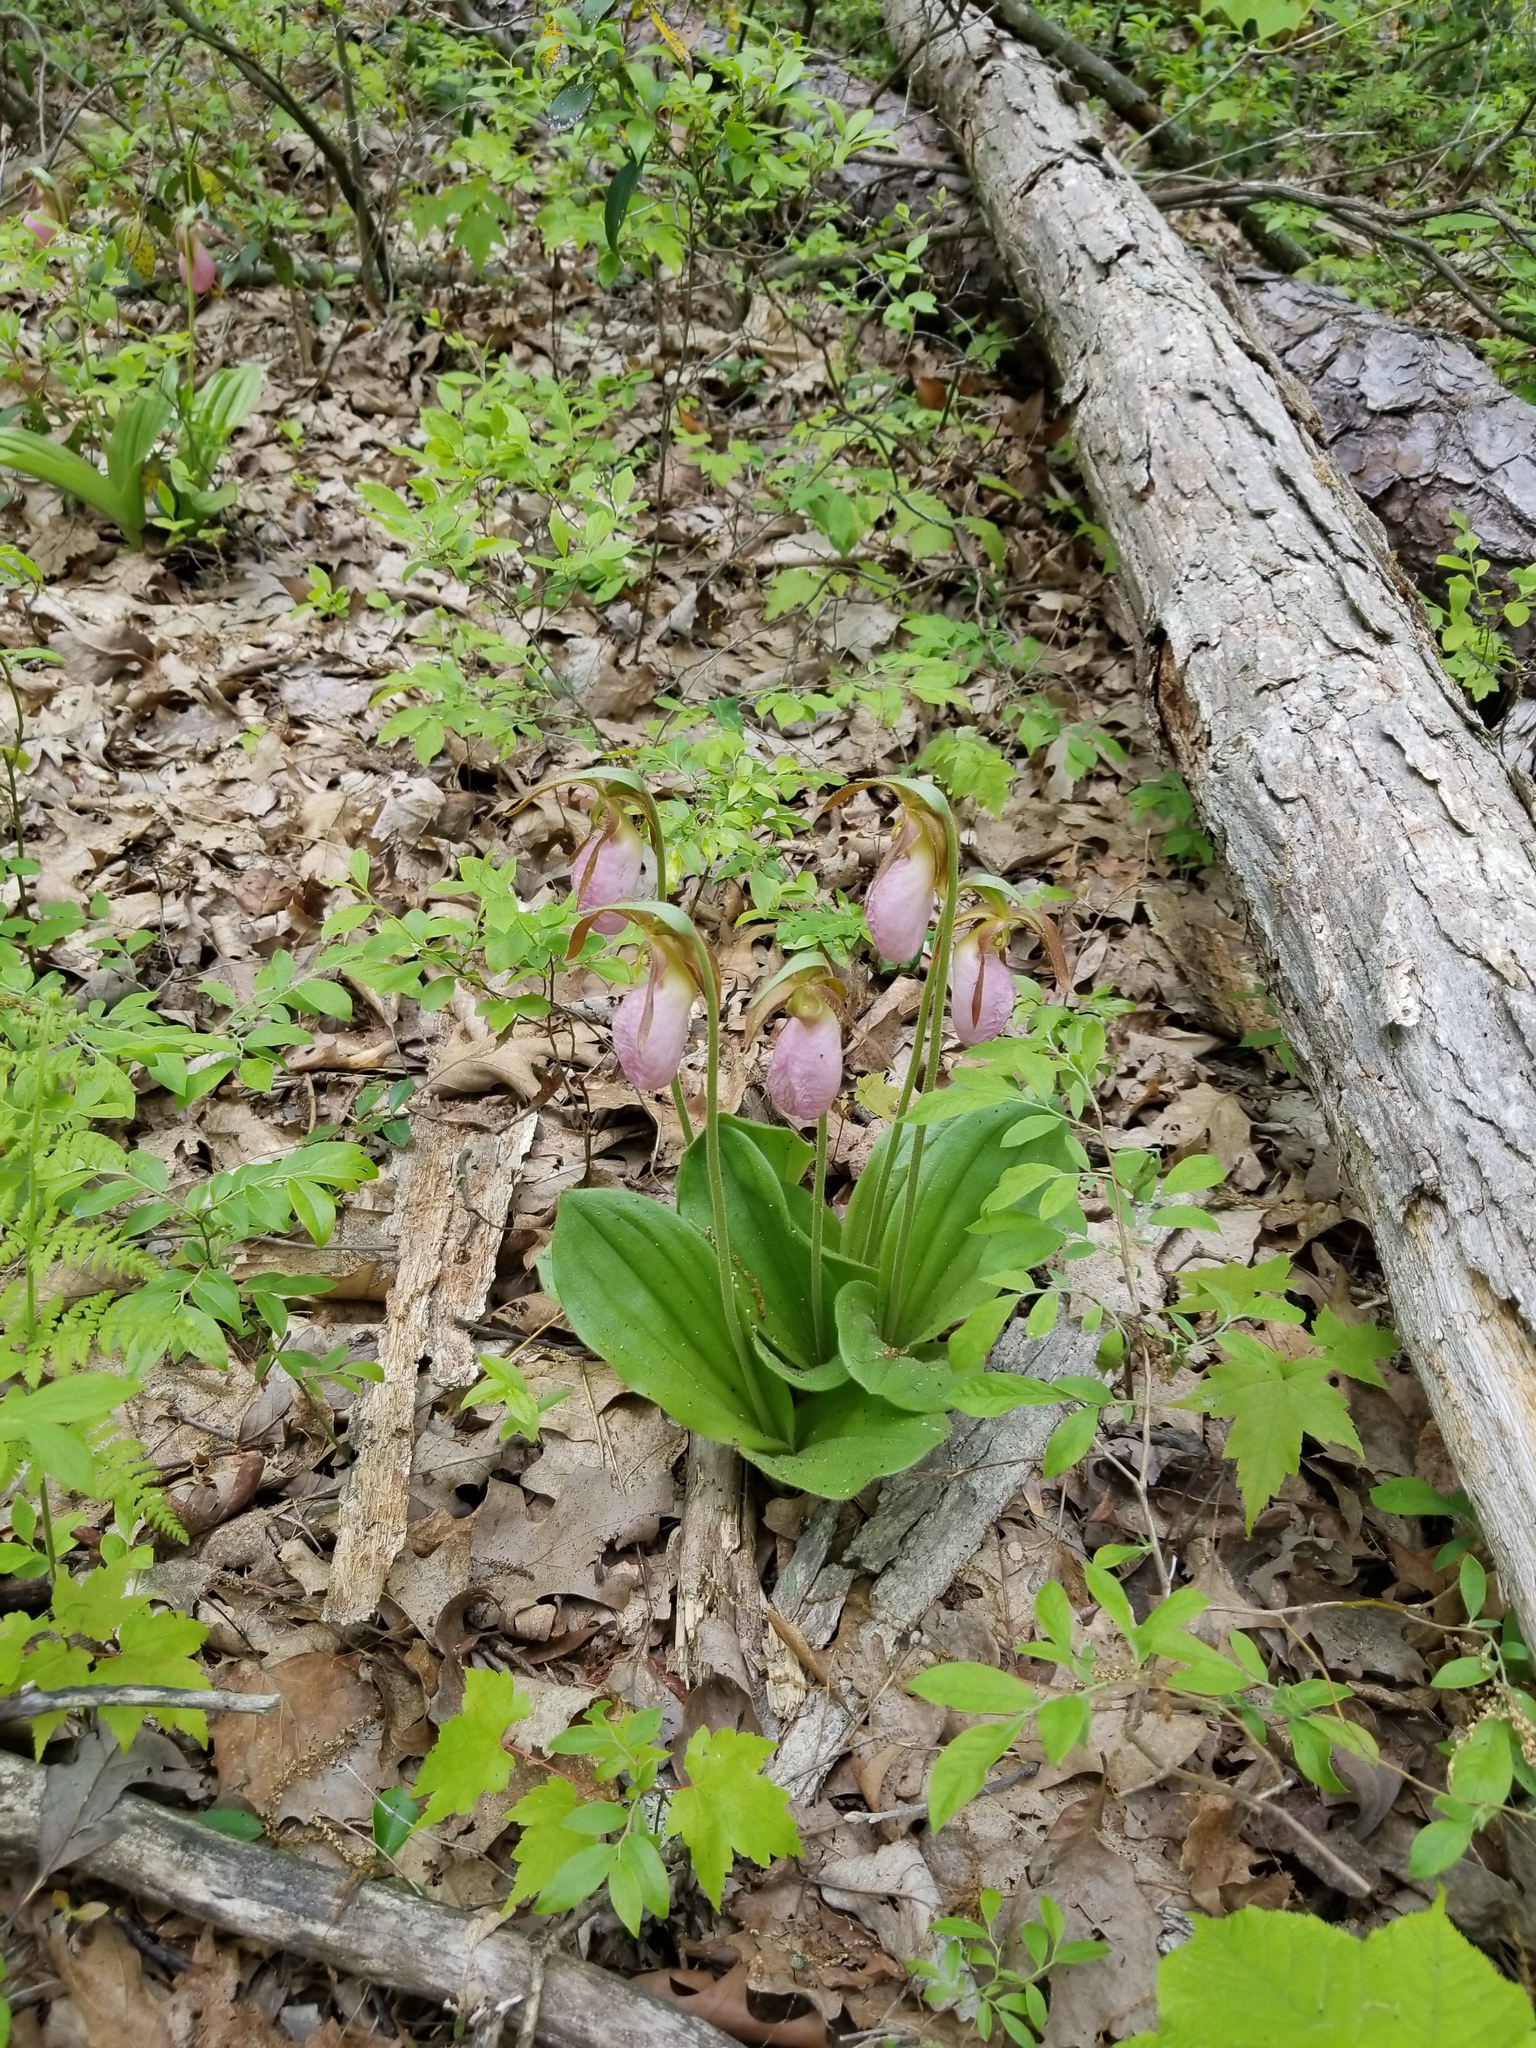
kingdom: Plantae
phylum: Tracheophyta
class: Liliopsida
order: Asparagales
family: Orchidaceae
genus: Cypripedium
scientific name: Cypripedium acaule
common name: Pink lady's-slipper
